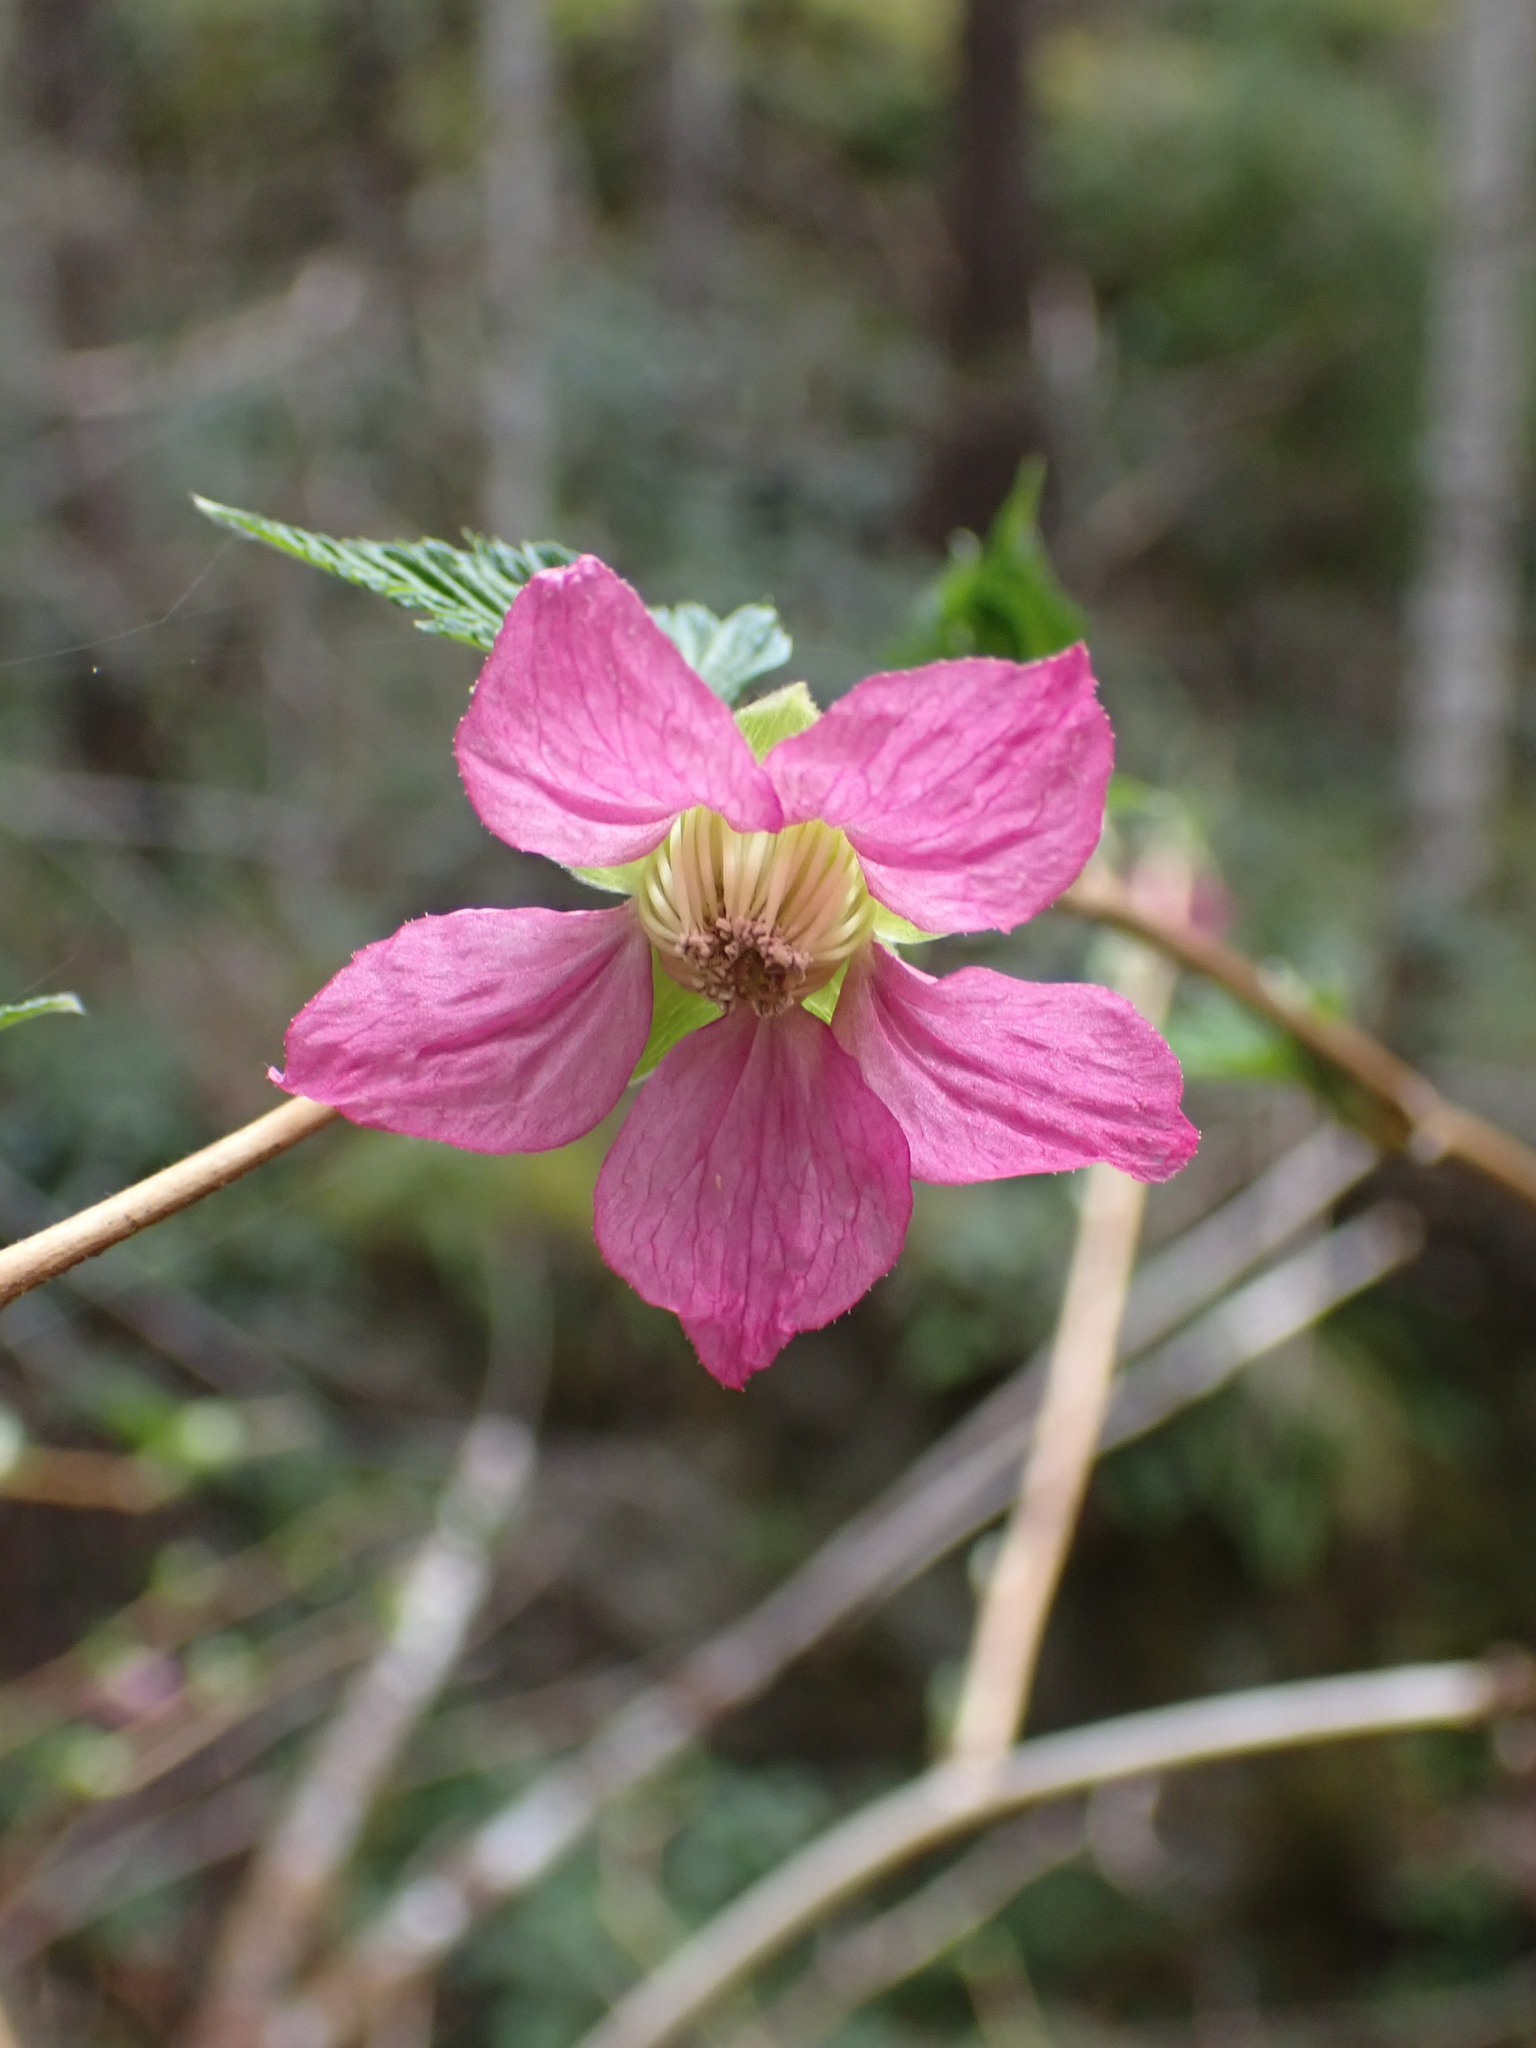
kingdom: Plantae
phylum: Tracheophyta
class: Magnoliopsida
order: Rosales
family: Rosaceae
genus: Rubus
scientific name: Rubus spectabilis
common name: Salmonberry
